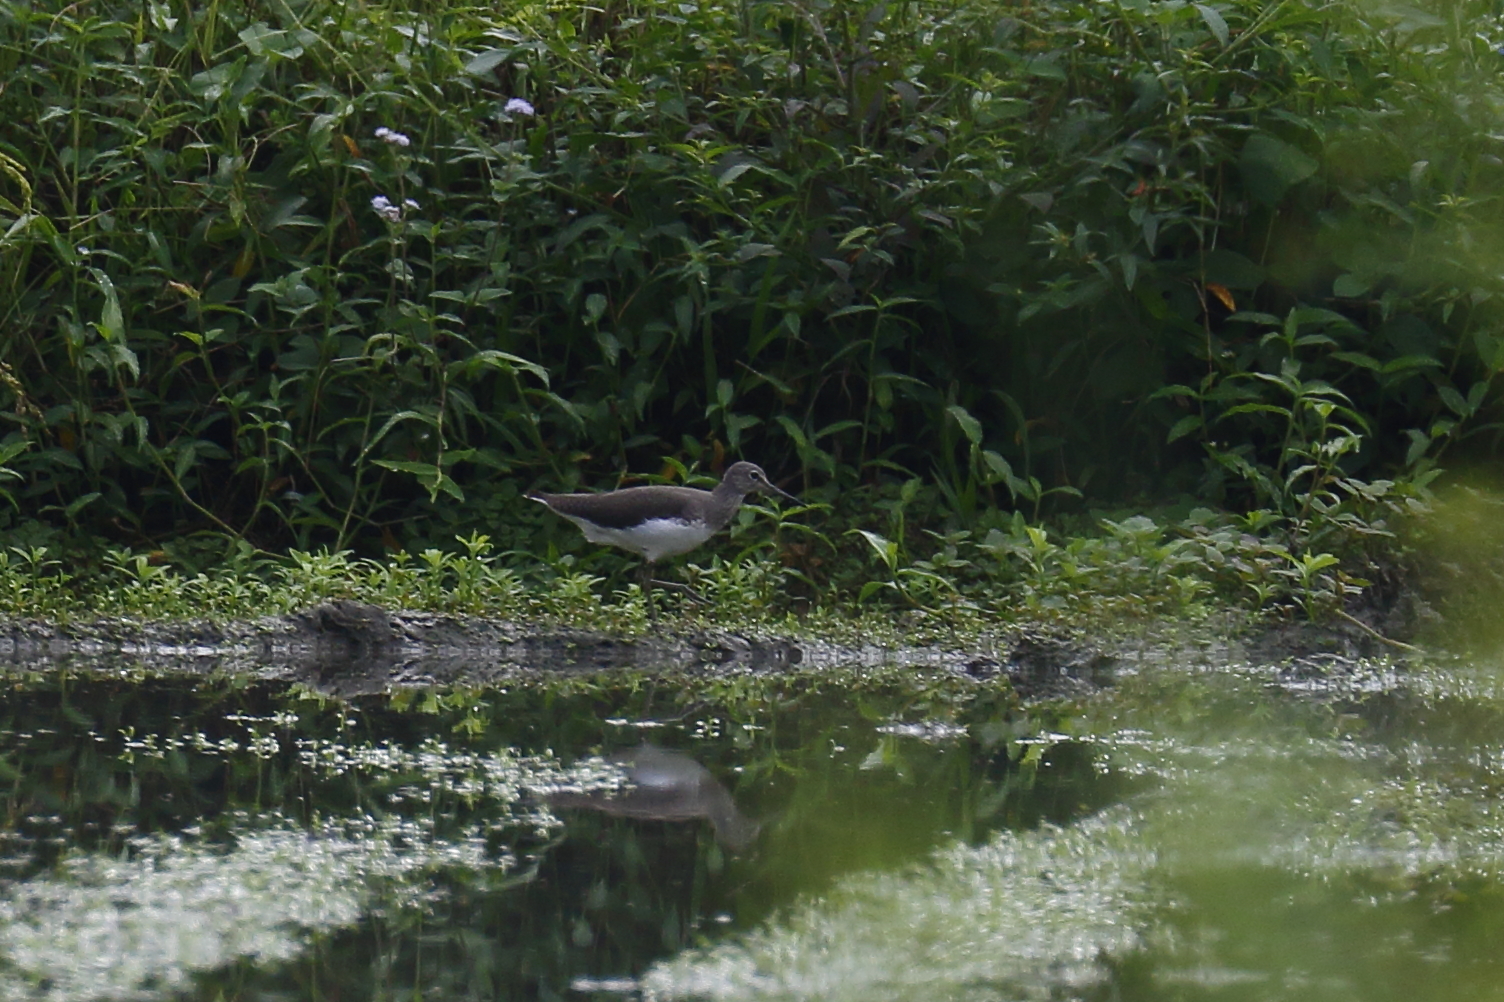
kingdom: Animalia
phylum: Chordata
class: Aves
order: Charadriiformes
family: Scolopacidae
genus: Tringa
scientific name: Tringa ochropus
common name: Green sandpiper
